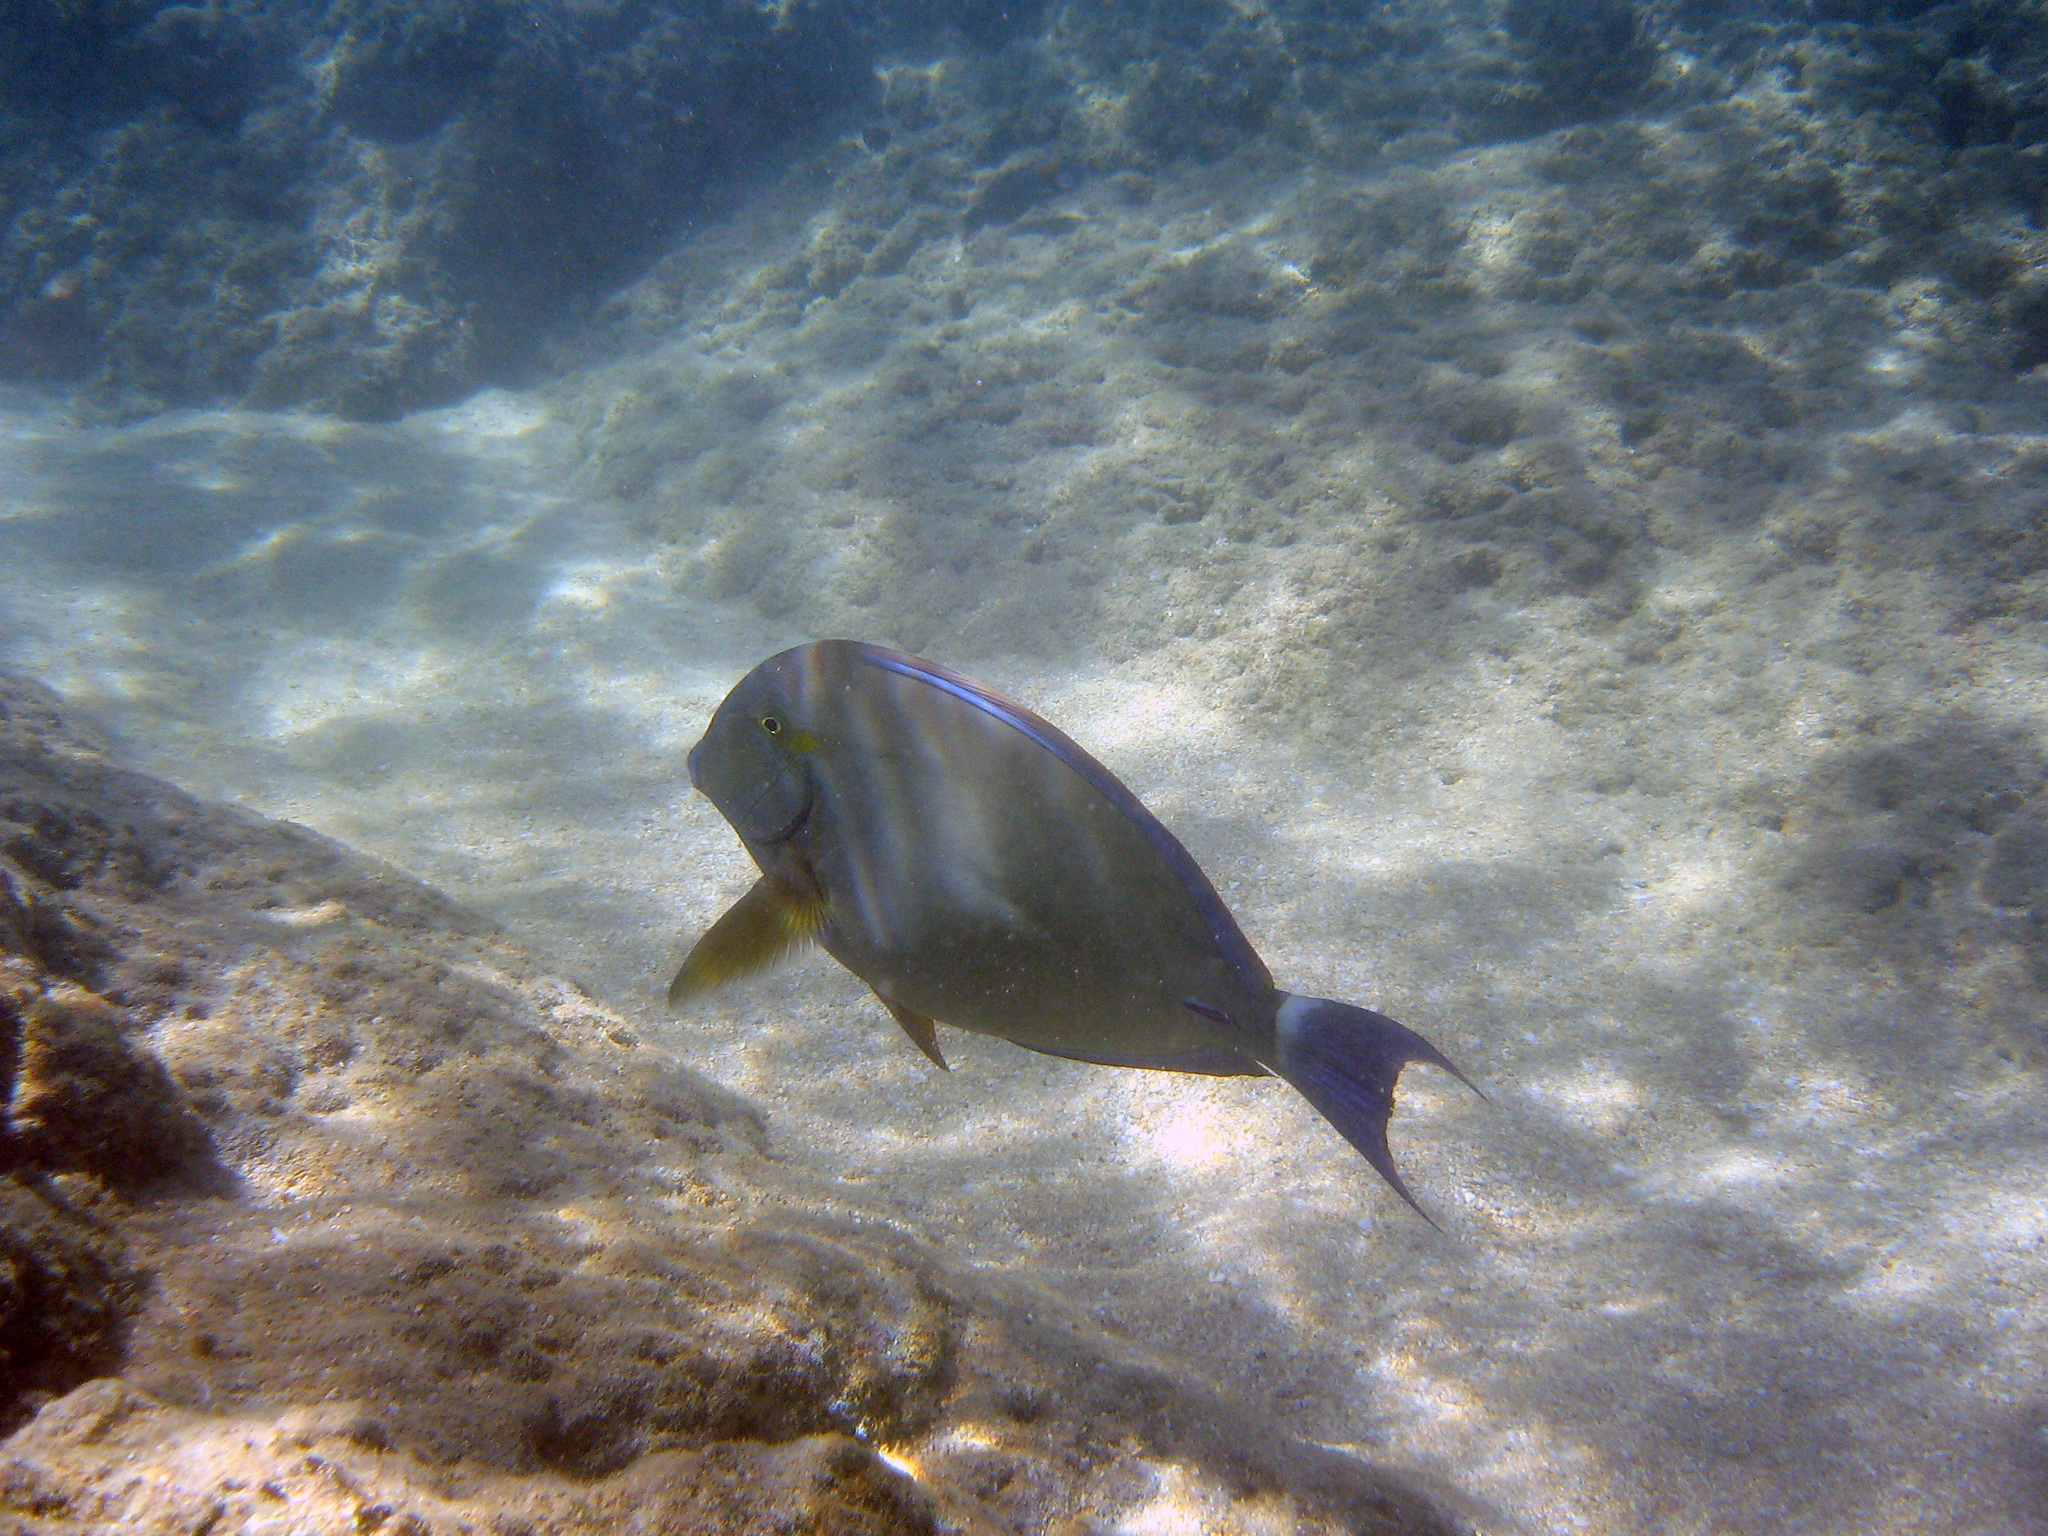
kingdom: Animalia
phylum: Chordata
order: Perciformes
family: Acanthuridae
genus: Acanthurus
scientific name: Acanthurus xanthopterus
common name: Cuvier's surgeonfish
